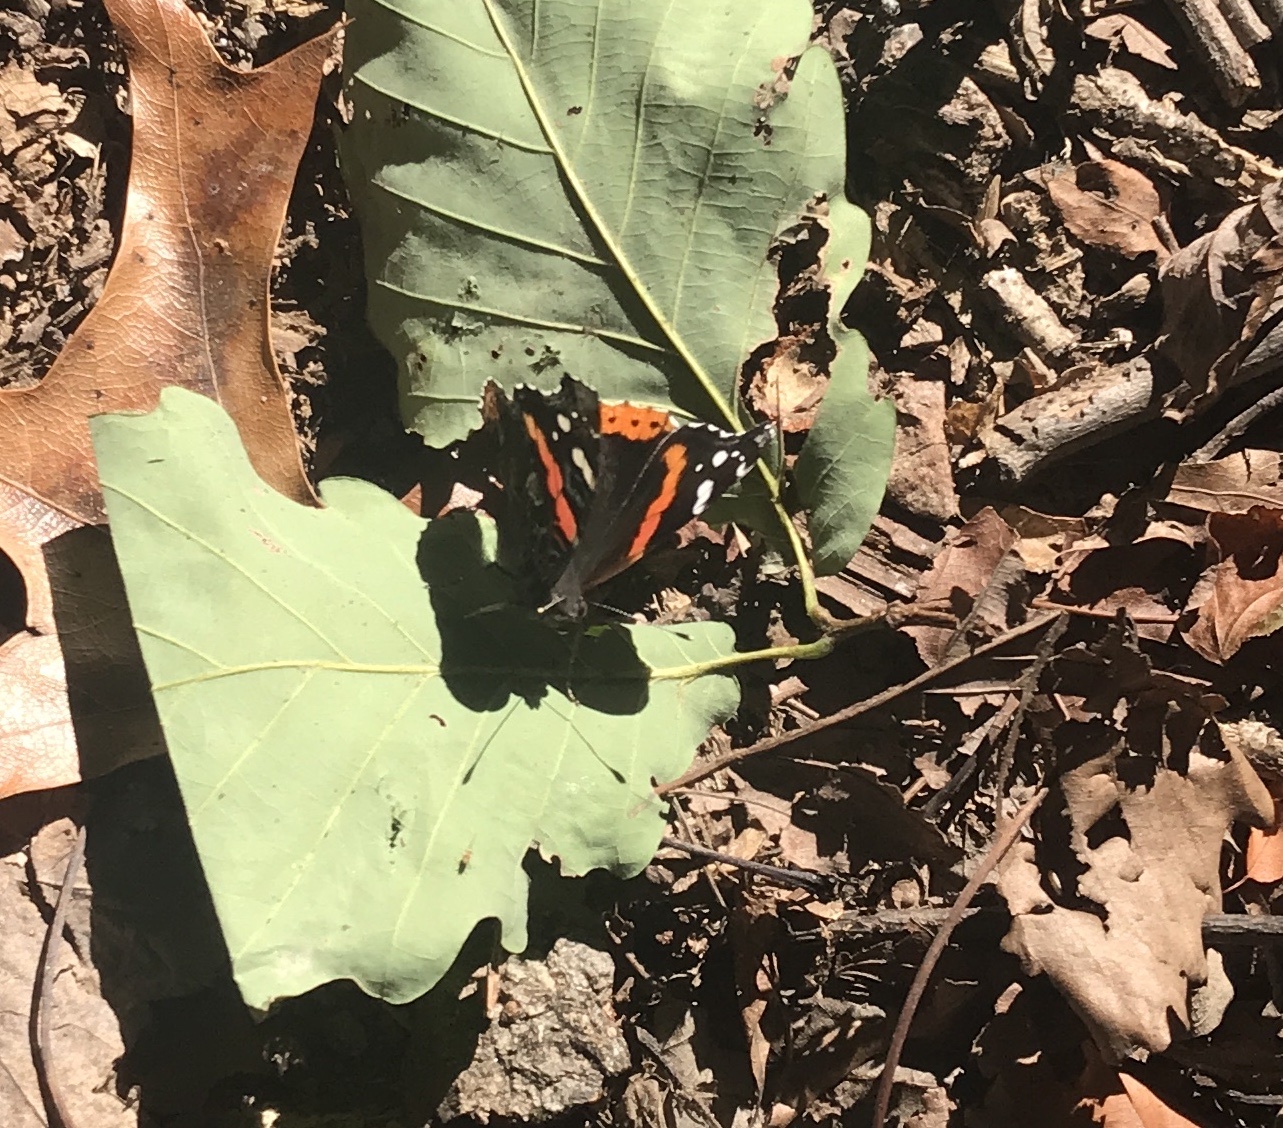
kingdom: Animalia
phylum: Arthropoda
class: Insecta
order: Lepidoptera
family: Nymphalidae
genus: Vanessa
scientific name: Vanessa atalanta
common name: Red admiral
